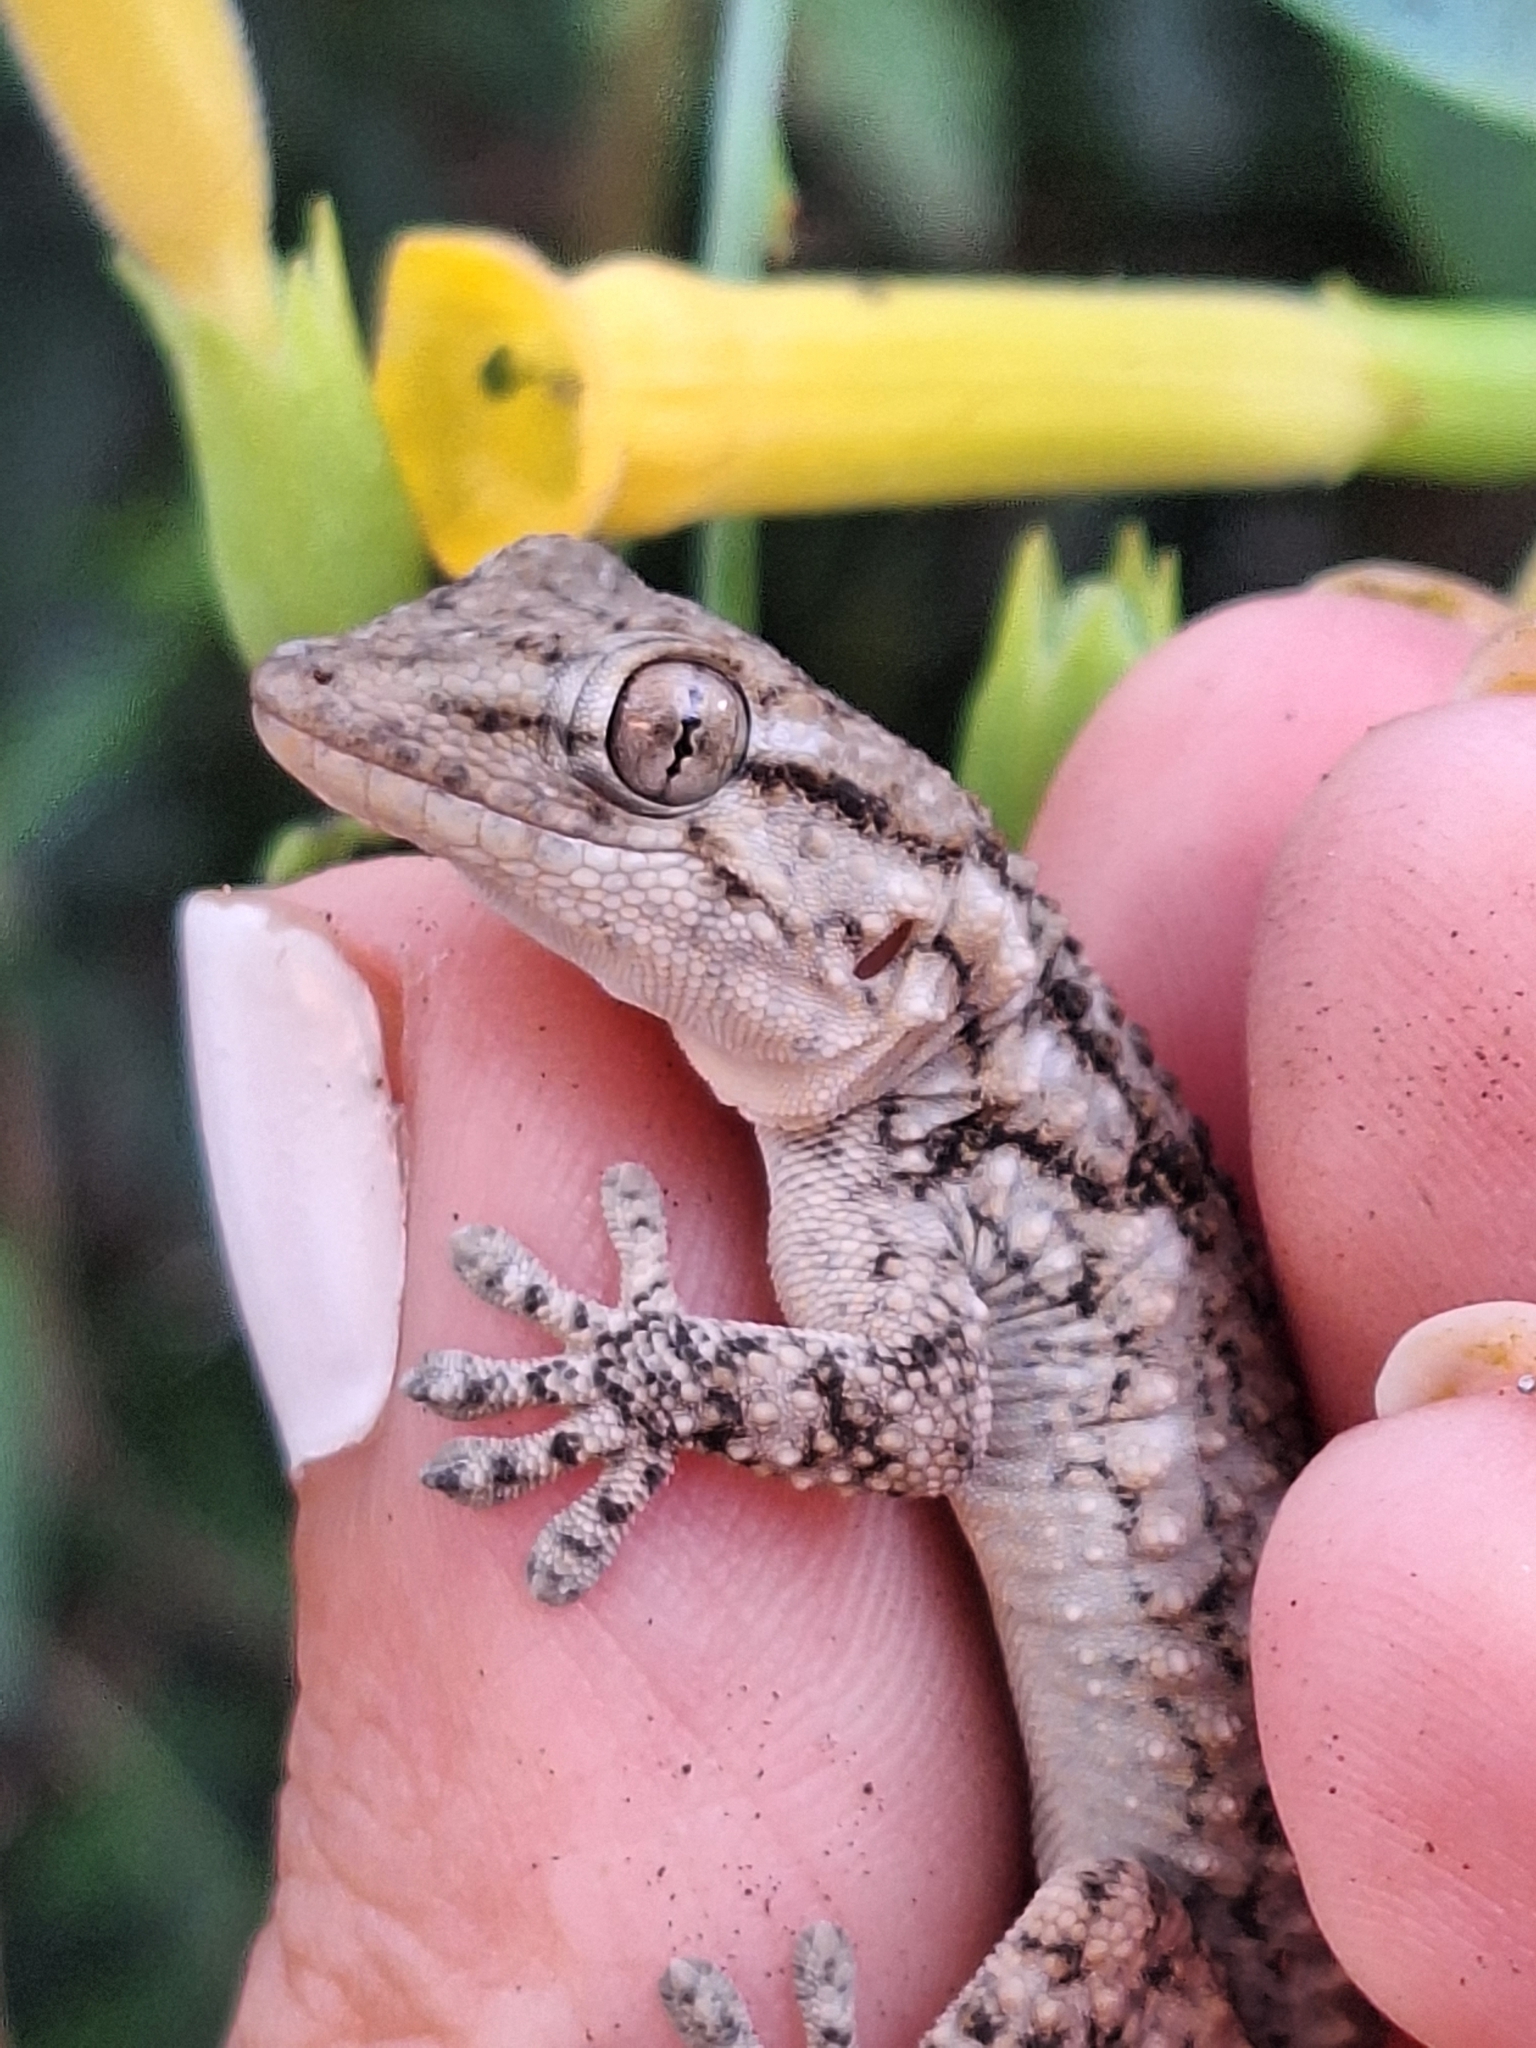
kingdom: Animalia
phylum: Chordata
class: Squamata
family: Phyllodactylidae
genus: Tarentola
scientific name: Tarentola mauritanica
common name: Moorish gecko
